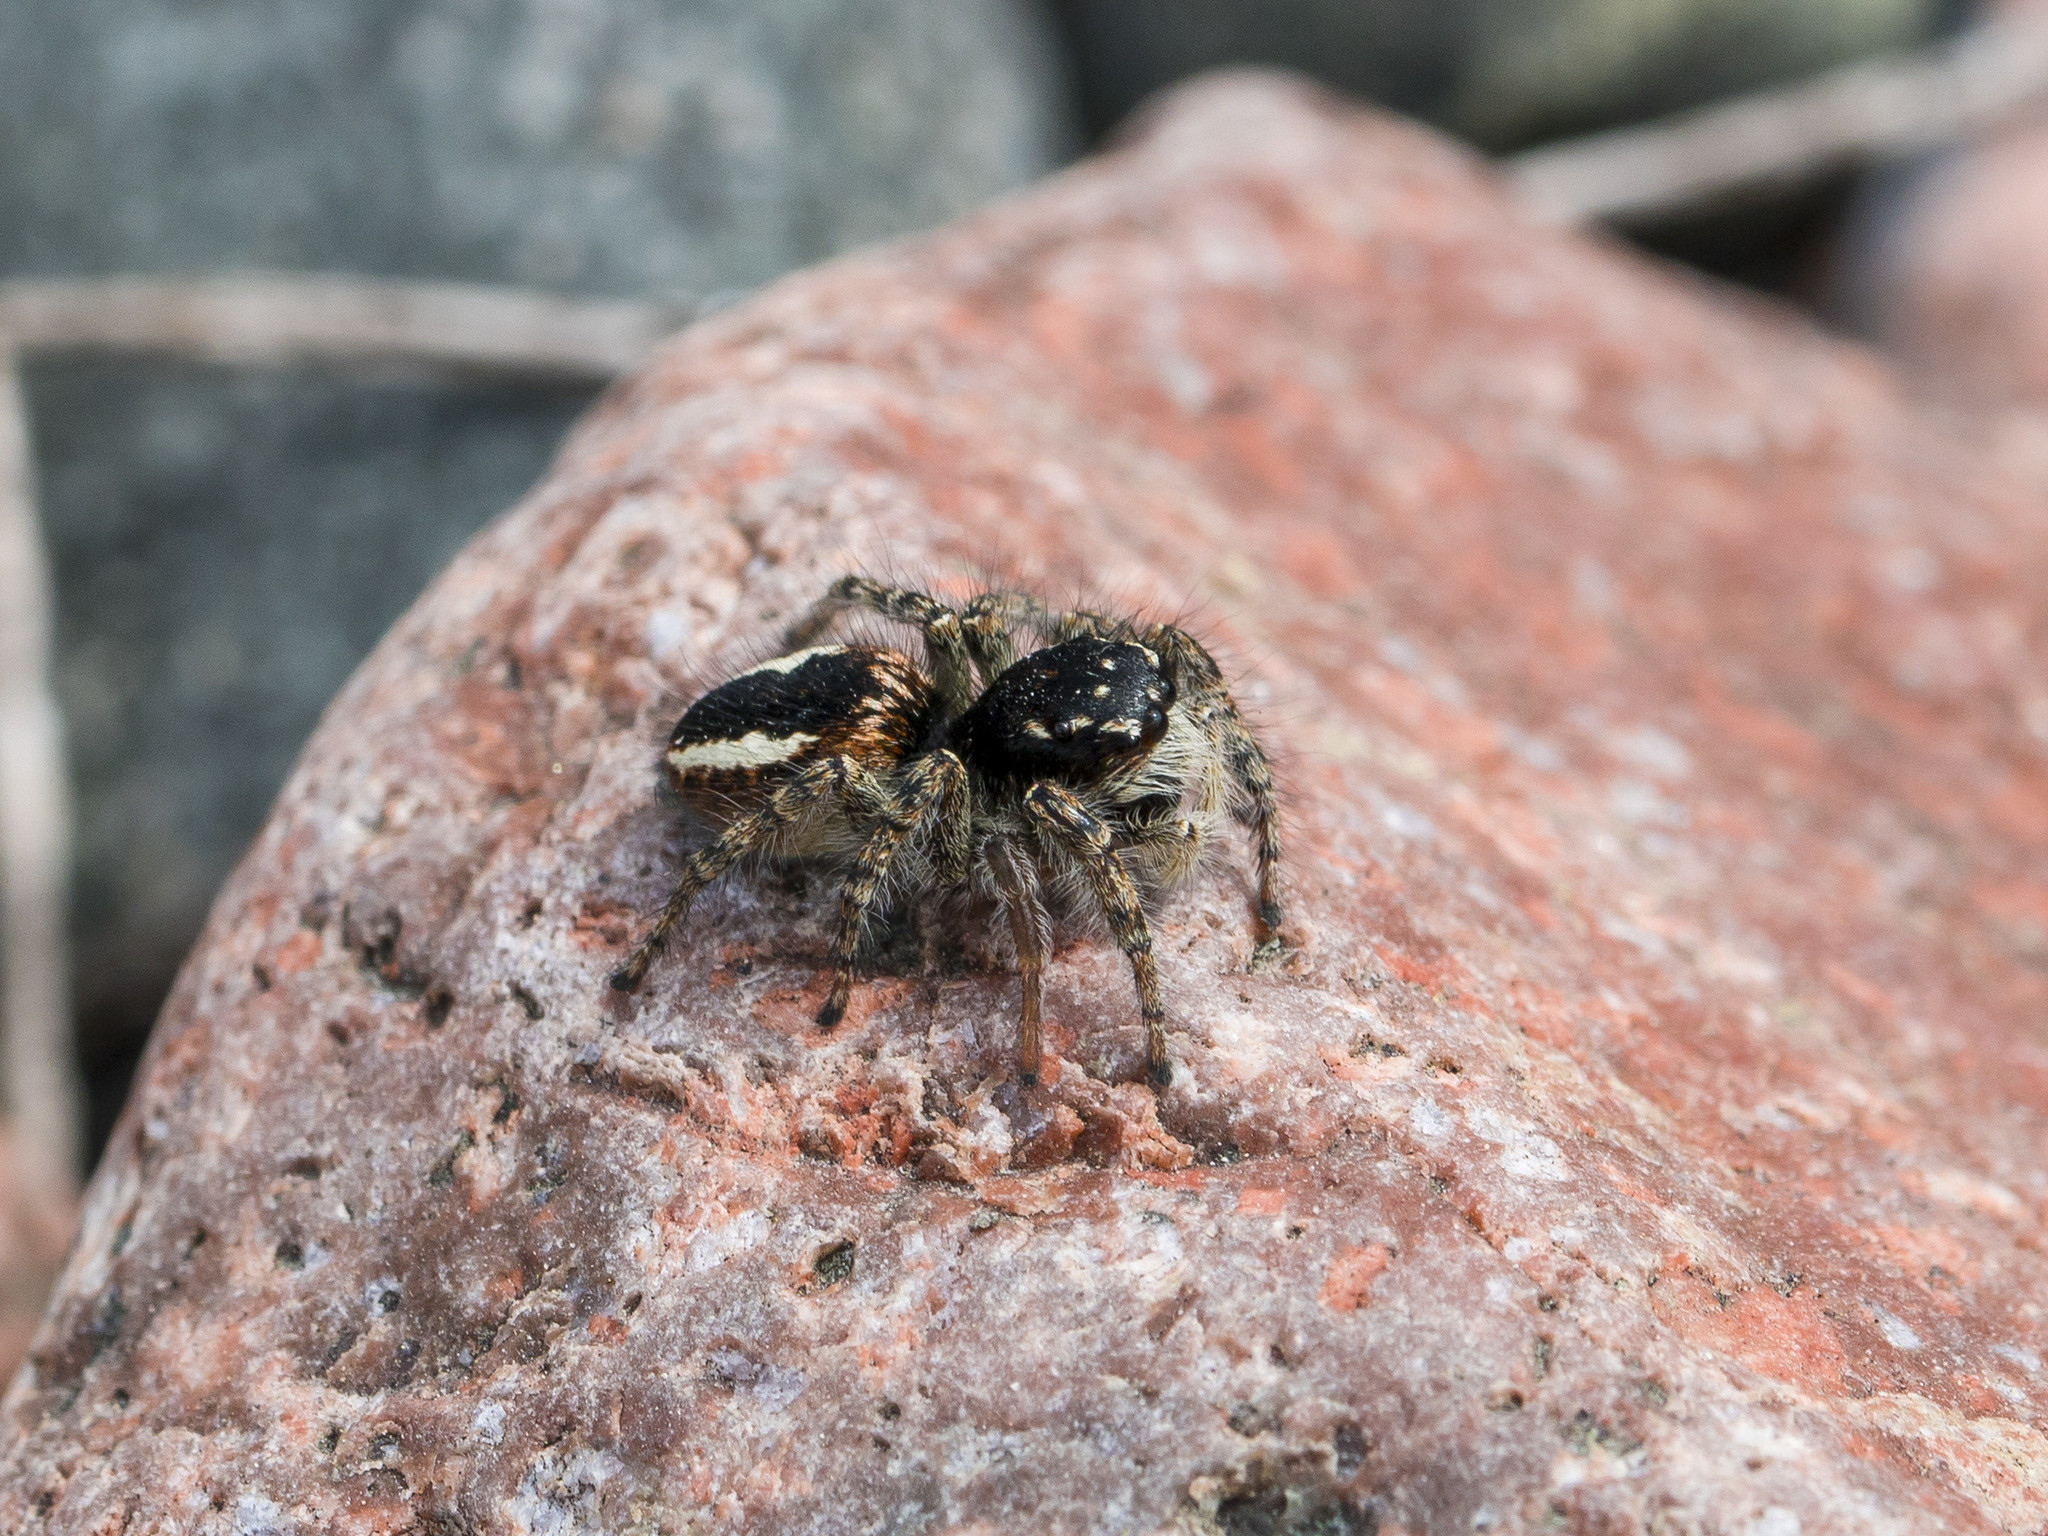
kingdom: Animalia
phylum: Arthropoda
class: Arachnida
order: Araneae
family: Salticidae
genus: Philaeus
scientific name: Philaeus chrysops
